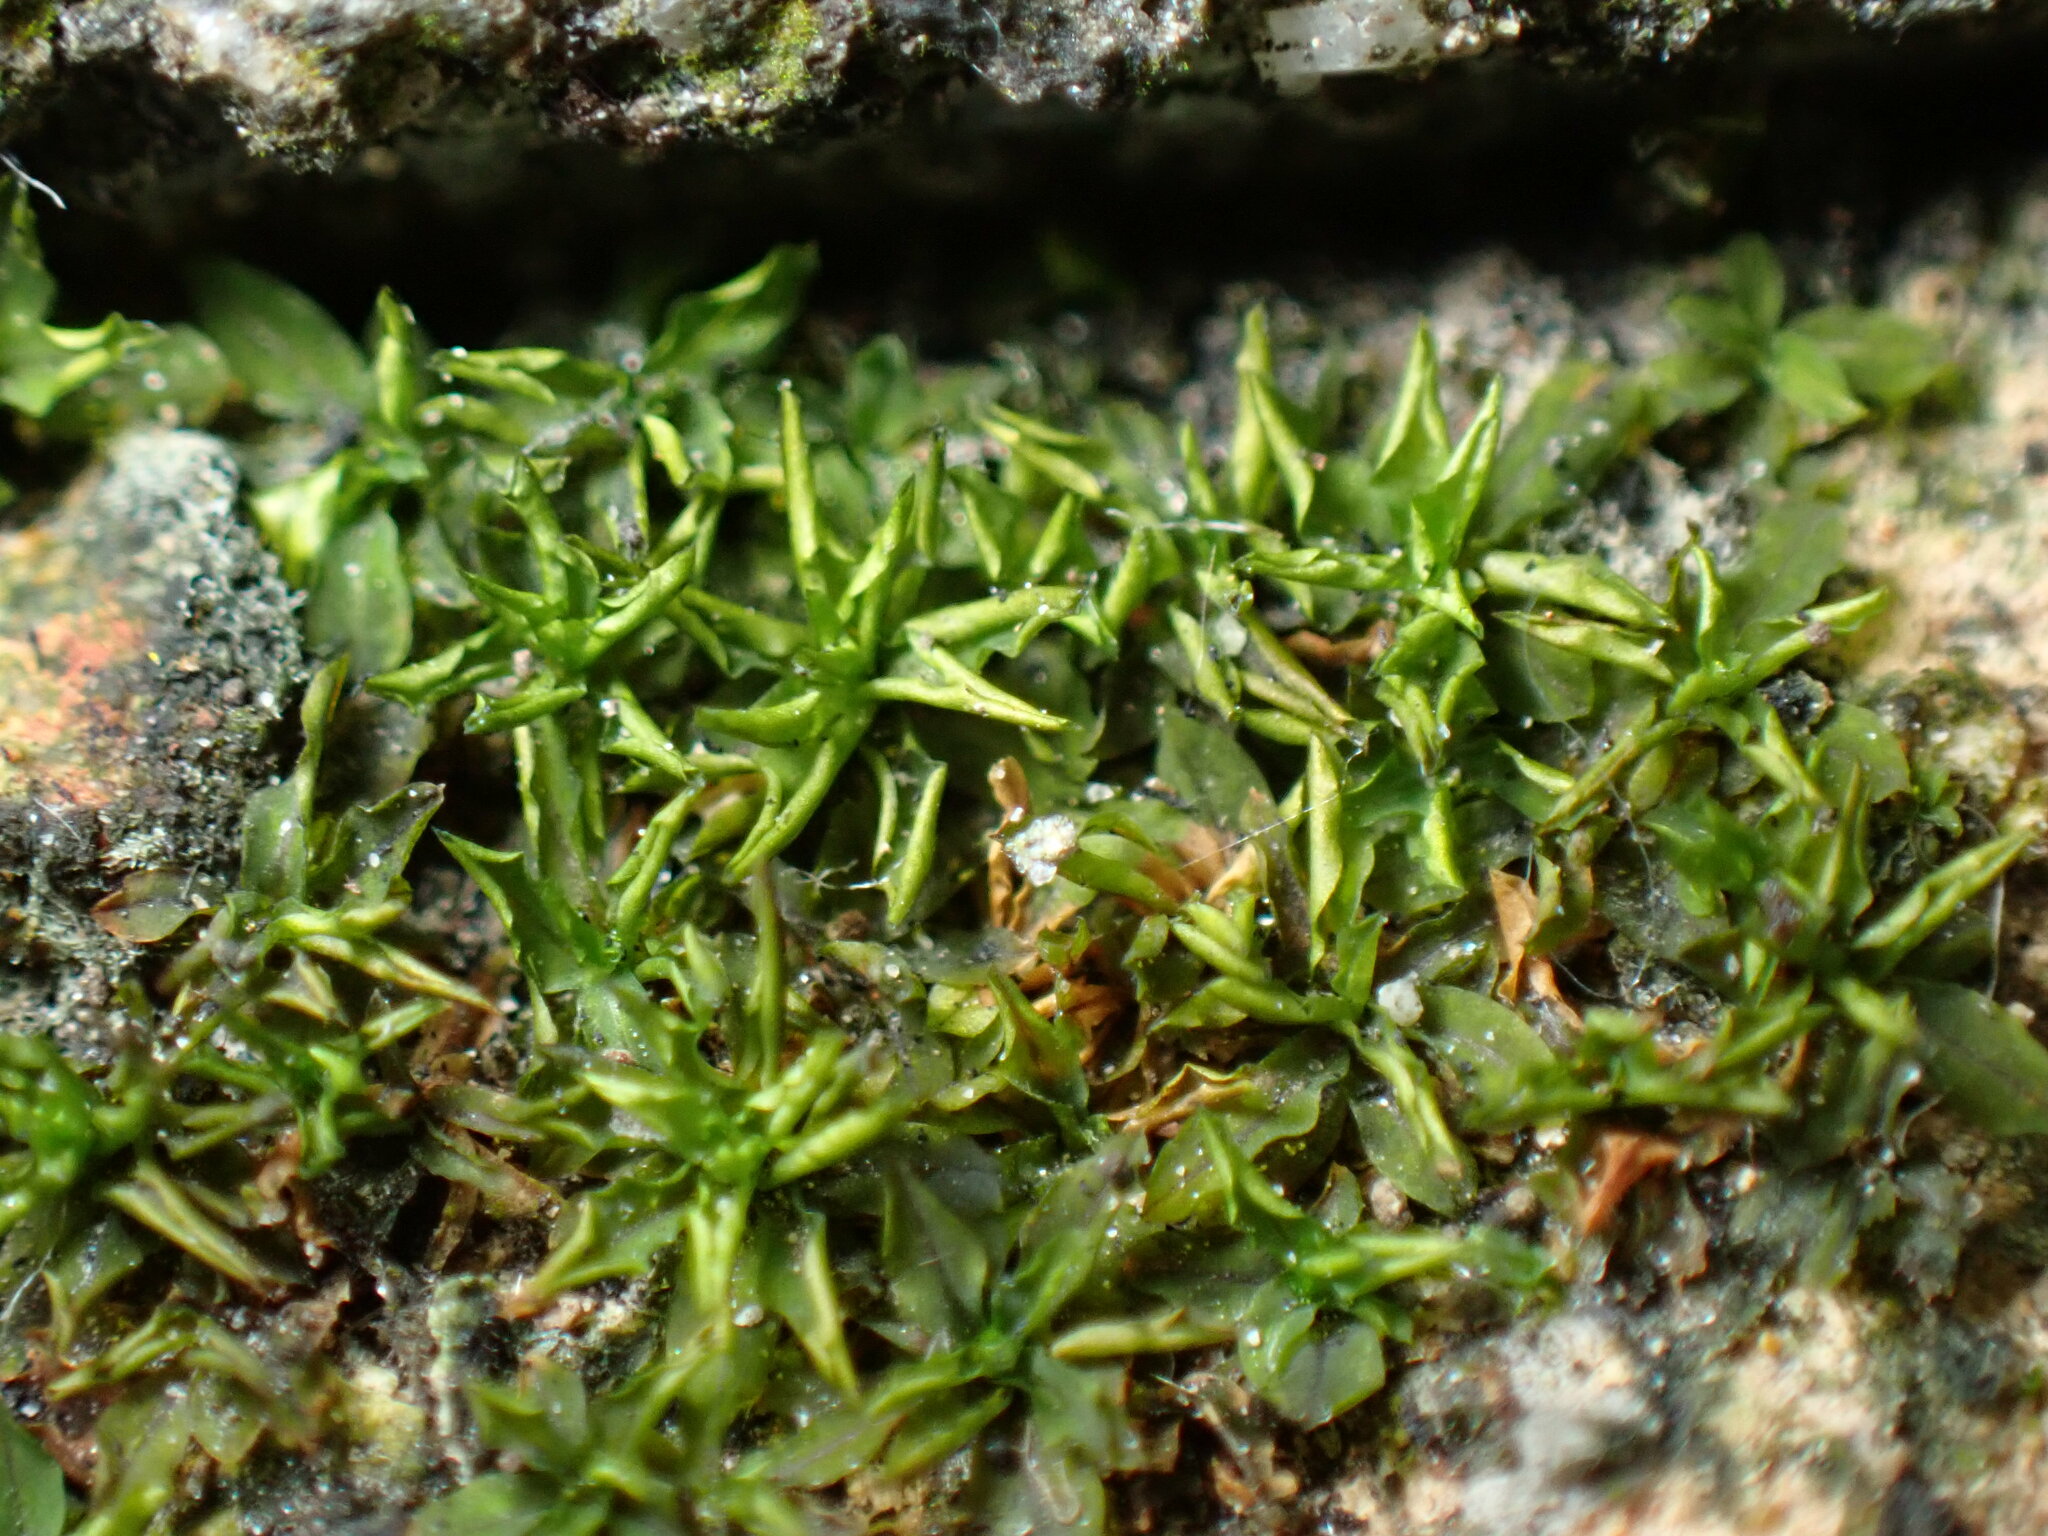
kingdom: Plantae
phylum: Bryophyta
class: Bryopsida
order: Pottiales
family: Pottiaceae
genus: Hyophila
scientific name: Hyophila involuta
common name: Hyophila moss
